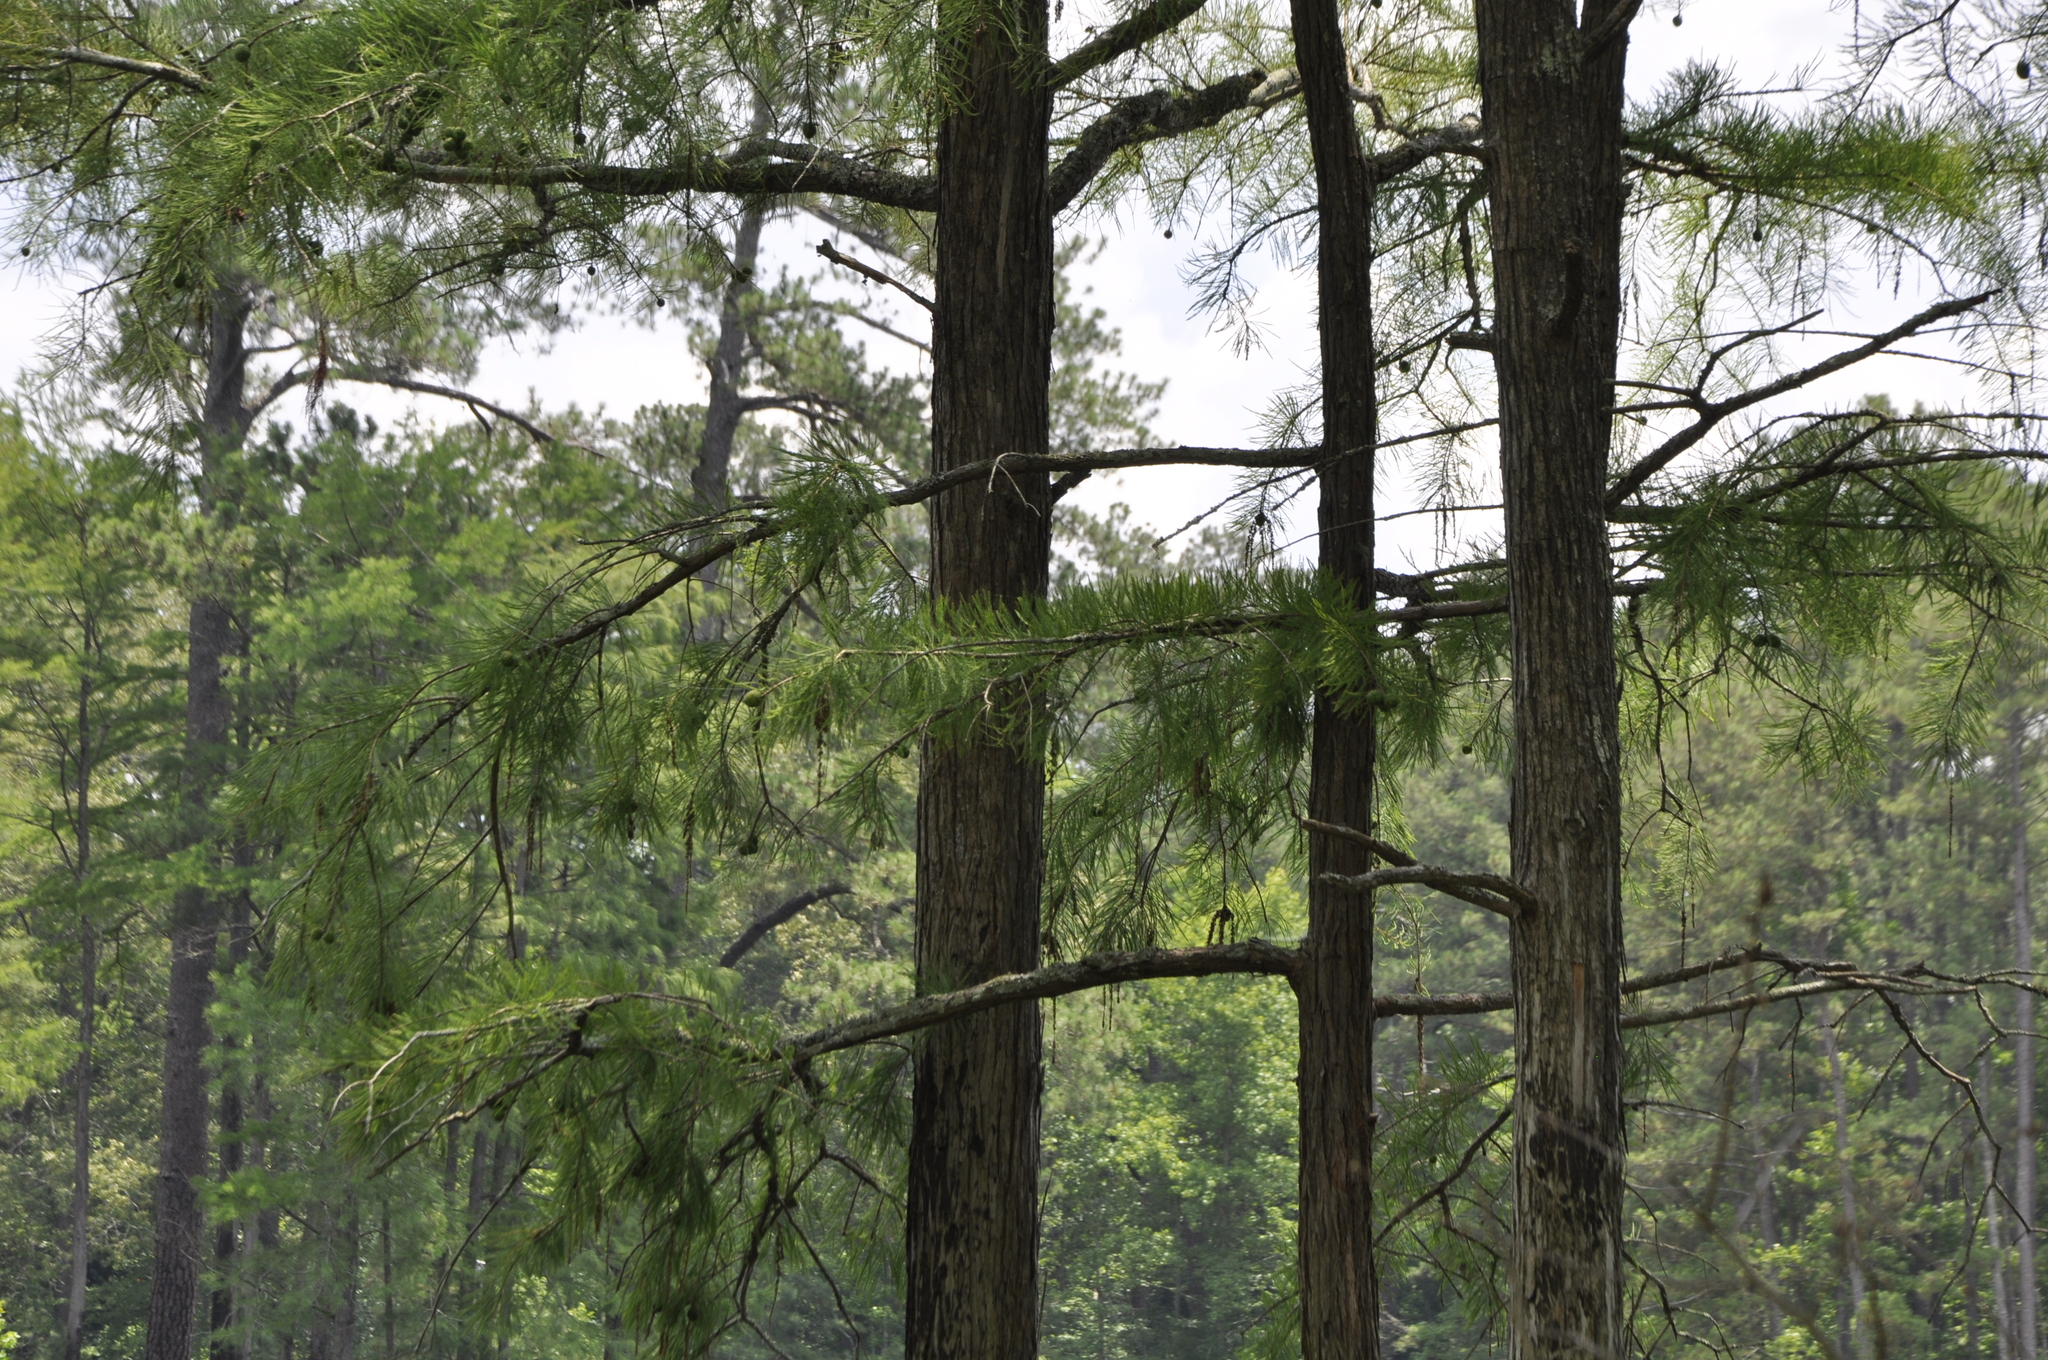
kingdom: Plantae
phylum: Tracheophyta
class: Pinopsida
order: Pinales
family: Cupressaceae
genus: Taxodium
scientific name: Taxodium distichum
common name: Bald cypress
